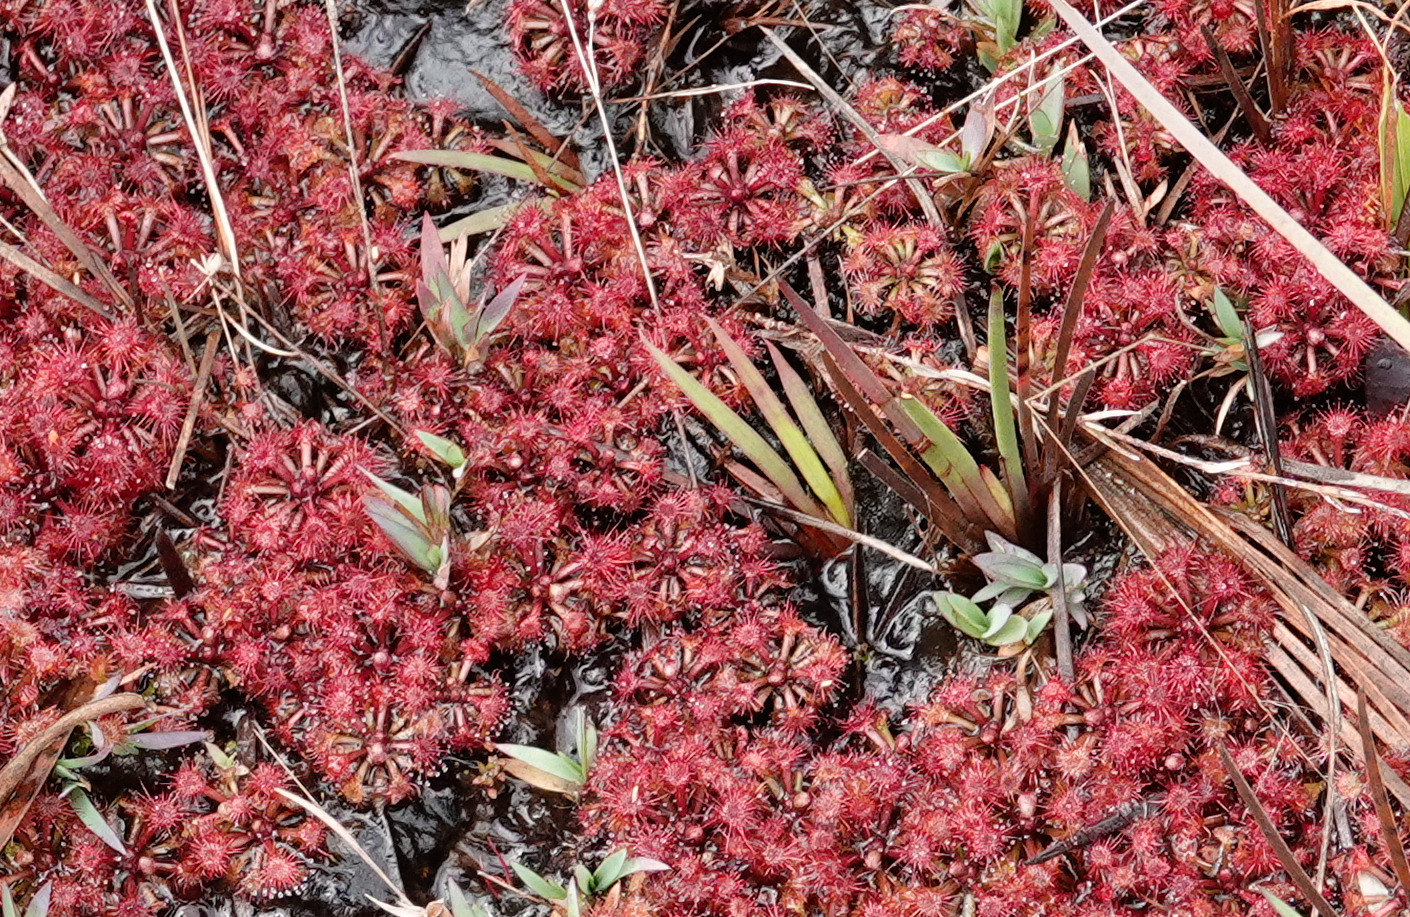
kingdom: Plantae
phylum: Tracheophyta
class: Magnoliopsida
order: Caryophyllales
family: Droseraceae
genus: Drosera
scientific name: Drosera kaieteurensis
